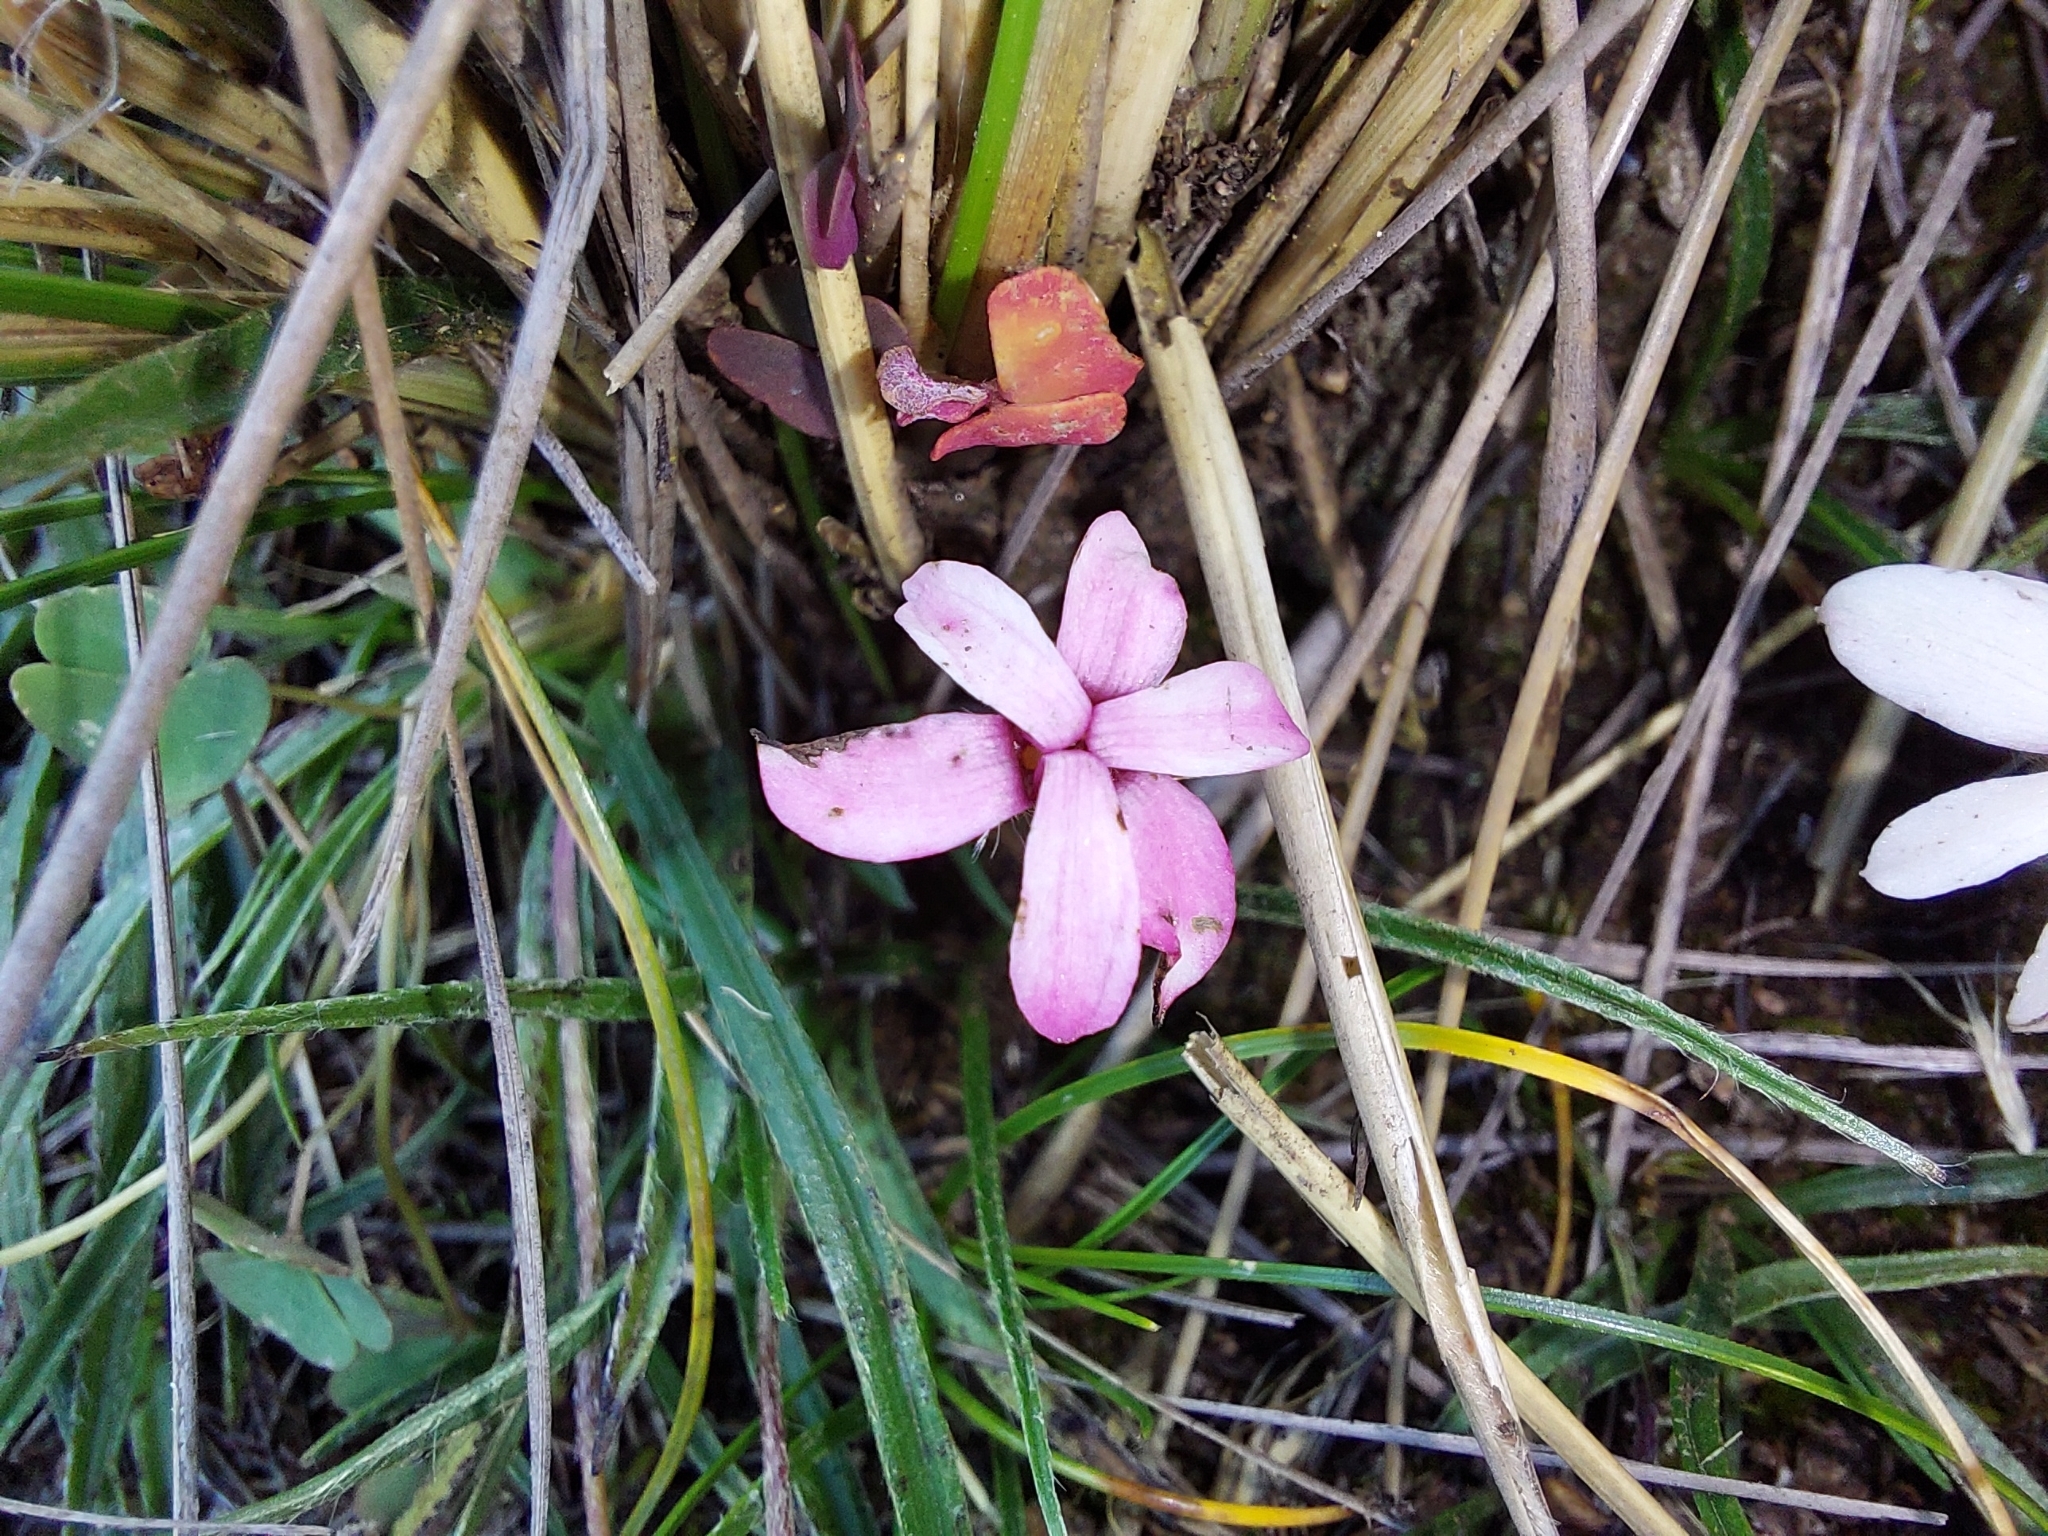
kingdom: Plantae
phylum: Tracheophyta
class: Liliopsida
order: Asparagales
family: Hypoxidaceae
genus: Hypoxis
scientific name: Hypoxis baurii
